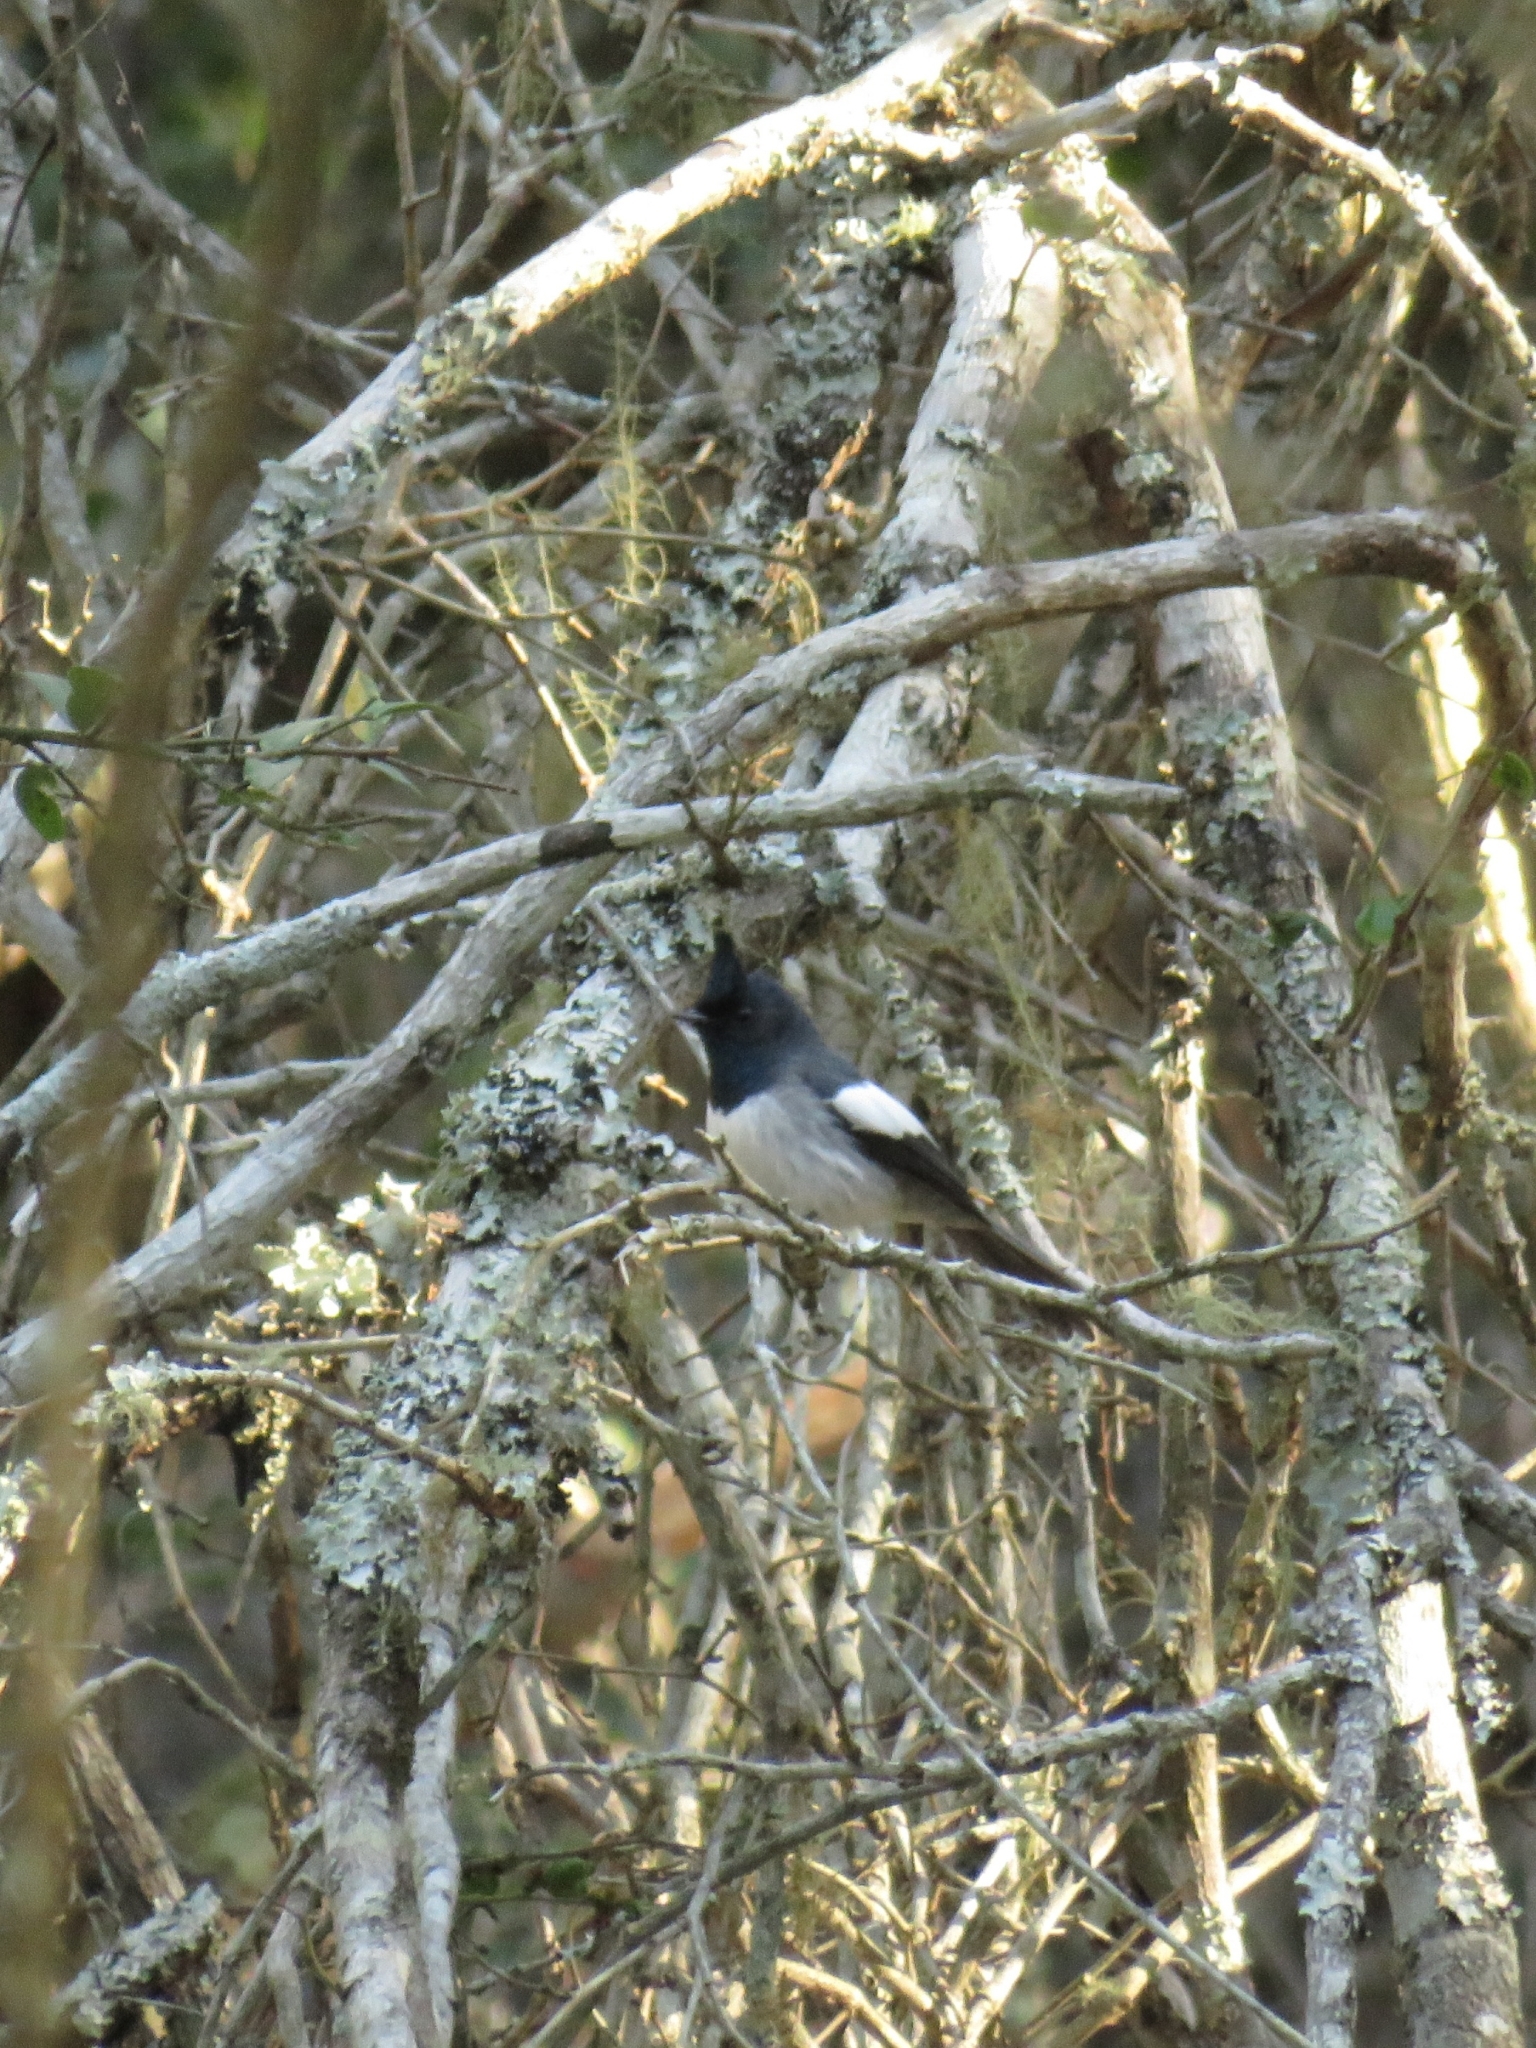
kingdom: Animalia
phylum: Chordata
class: Aves
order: Passeriformes
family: Monarchidae
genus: Trochocercus
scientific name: Trochocercus cyanomelas
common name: Blue-mantled crested flycatcher
